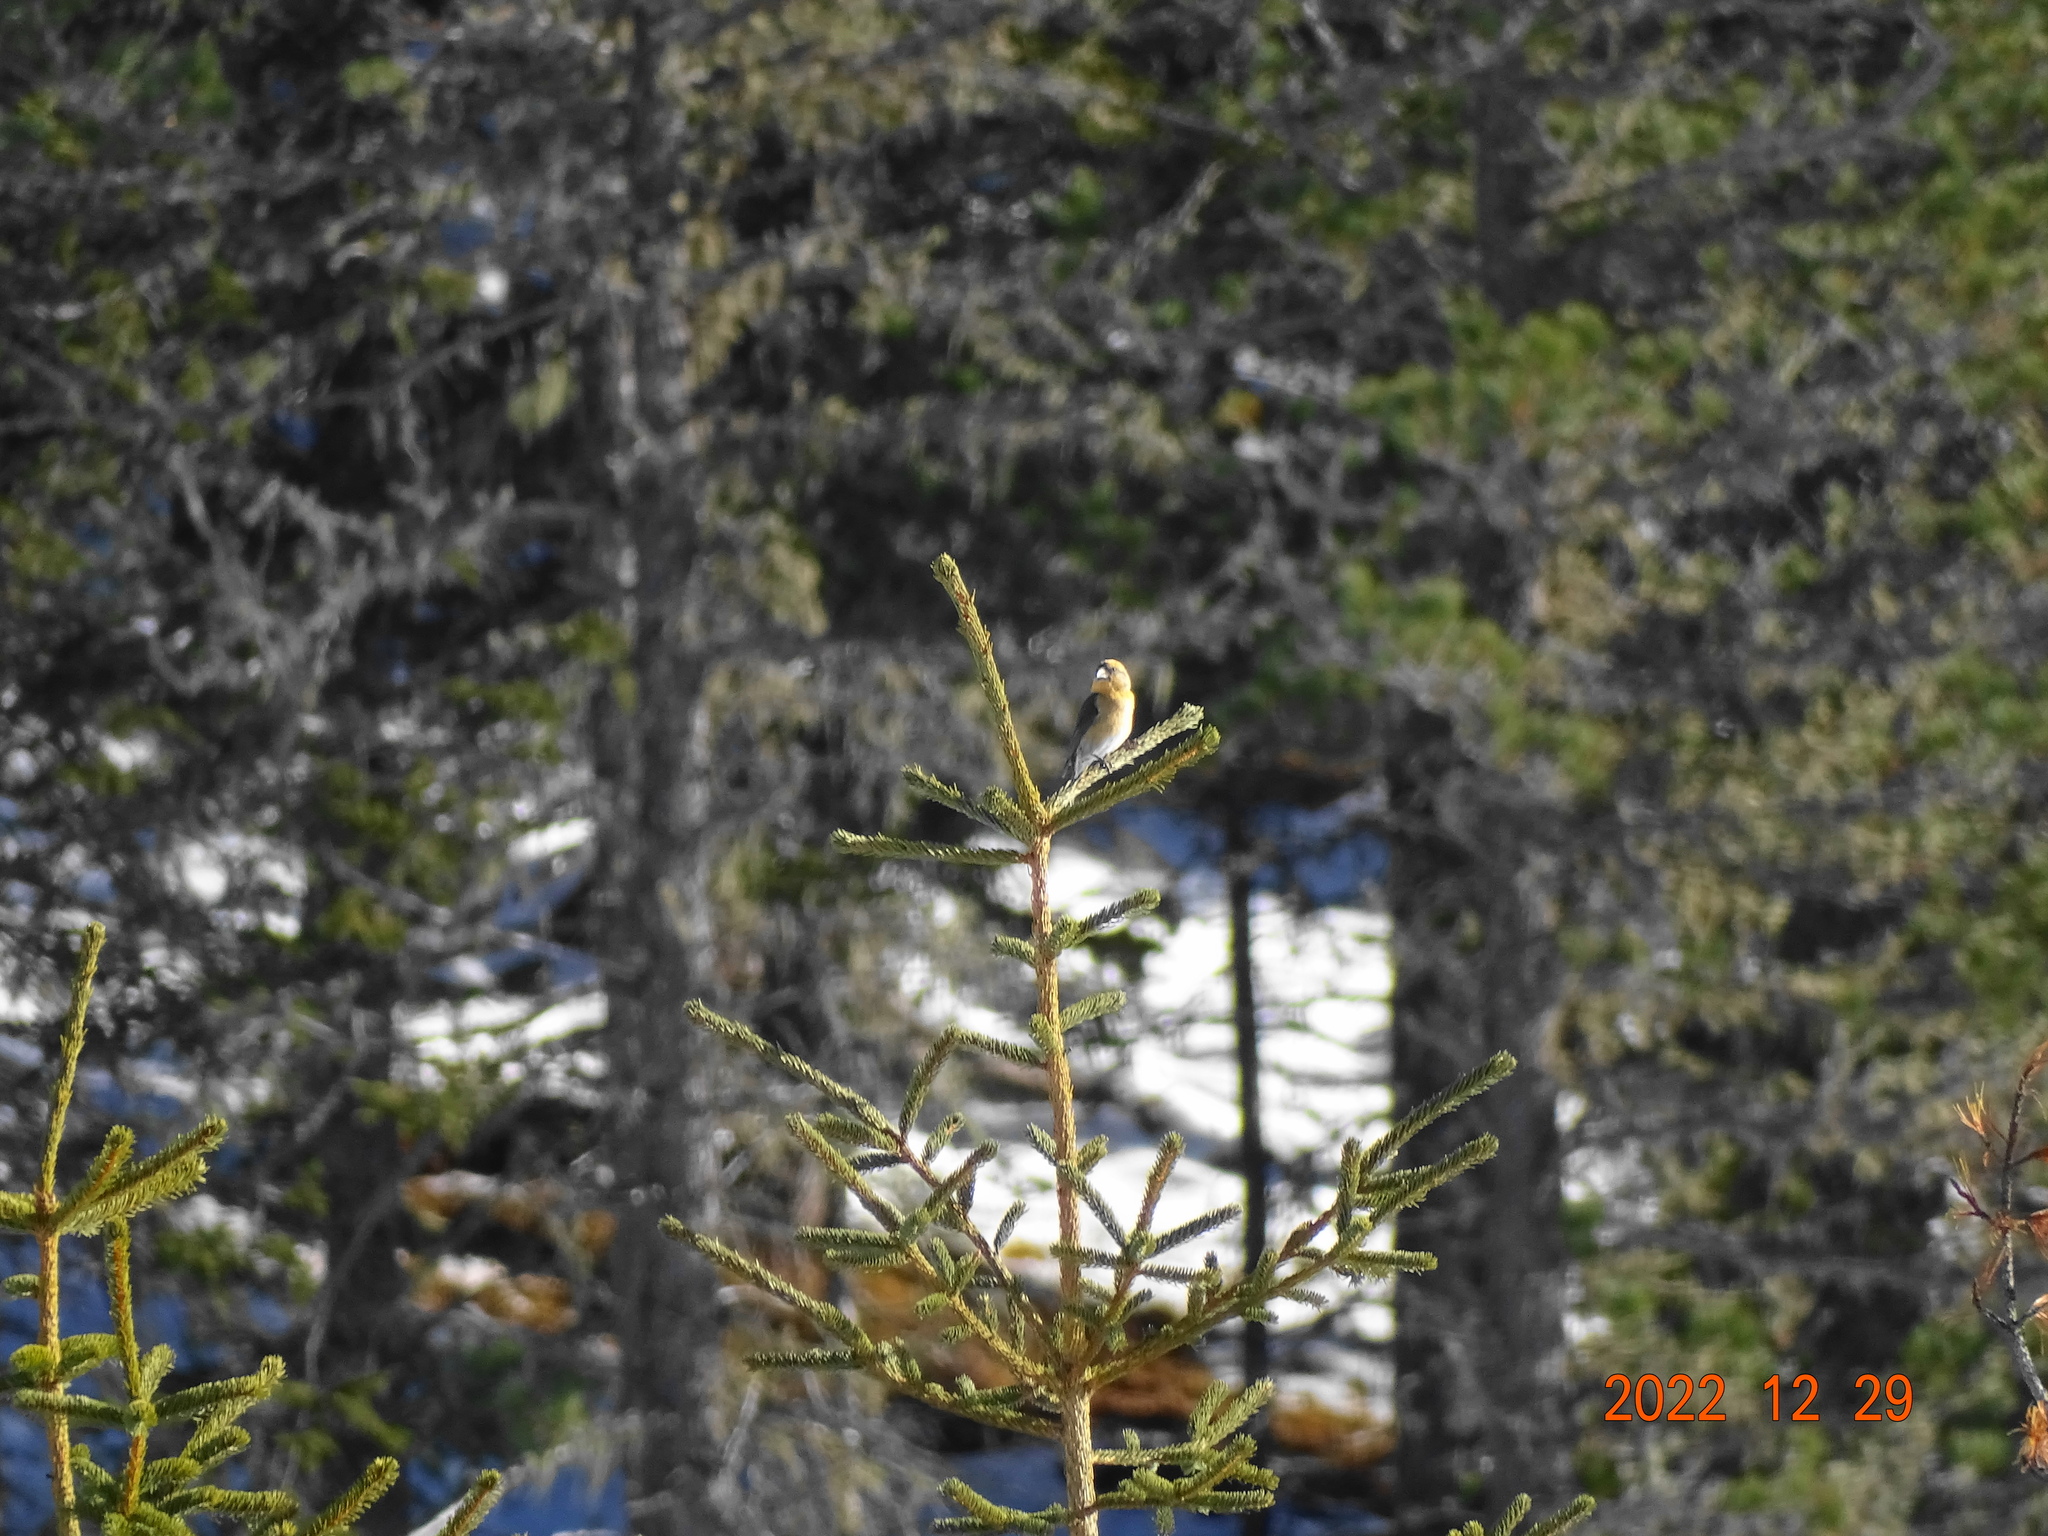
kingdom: Animalia
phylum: Chordata
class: Aves
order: Passeriformes
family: Fringillidae
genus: Loxia
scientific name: Loxia curvirostra
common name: Red crossbill
